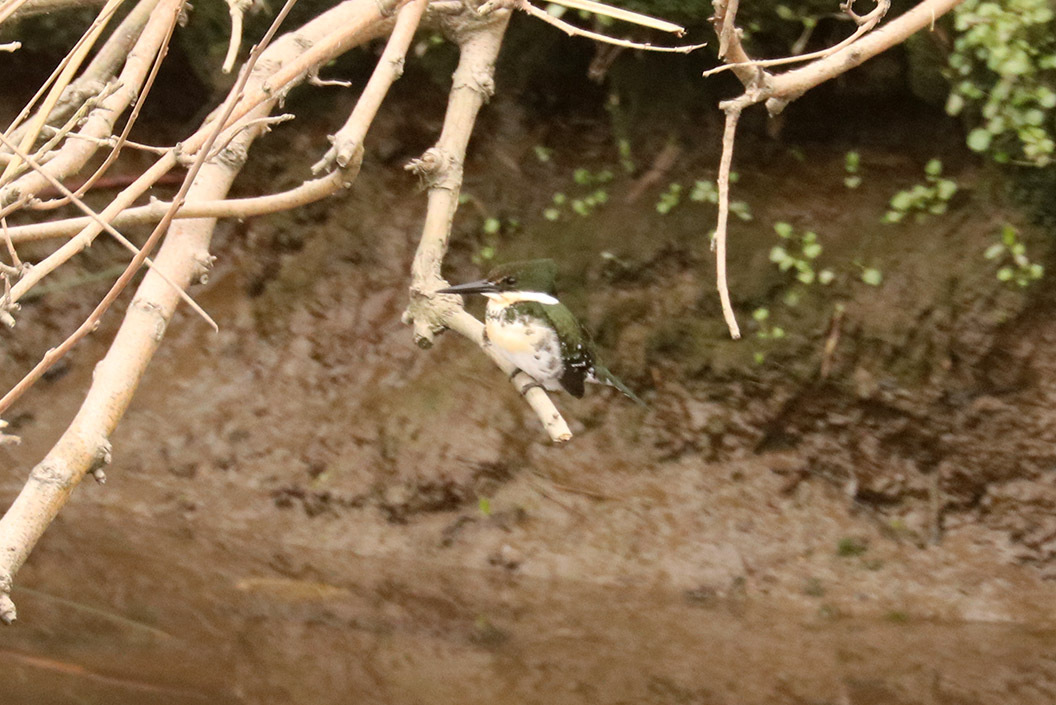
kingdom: Animalia
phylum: Chordata
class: Aves
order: Coraciiformes
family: Alcedinidae
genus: Chloroceryle
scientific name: Chloroceryle americana
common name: Green kingfisher
